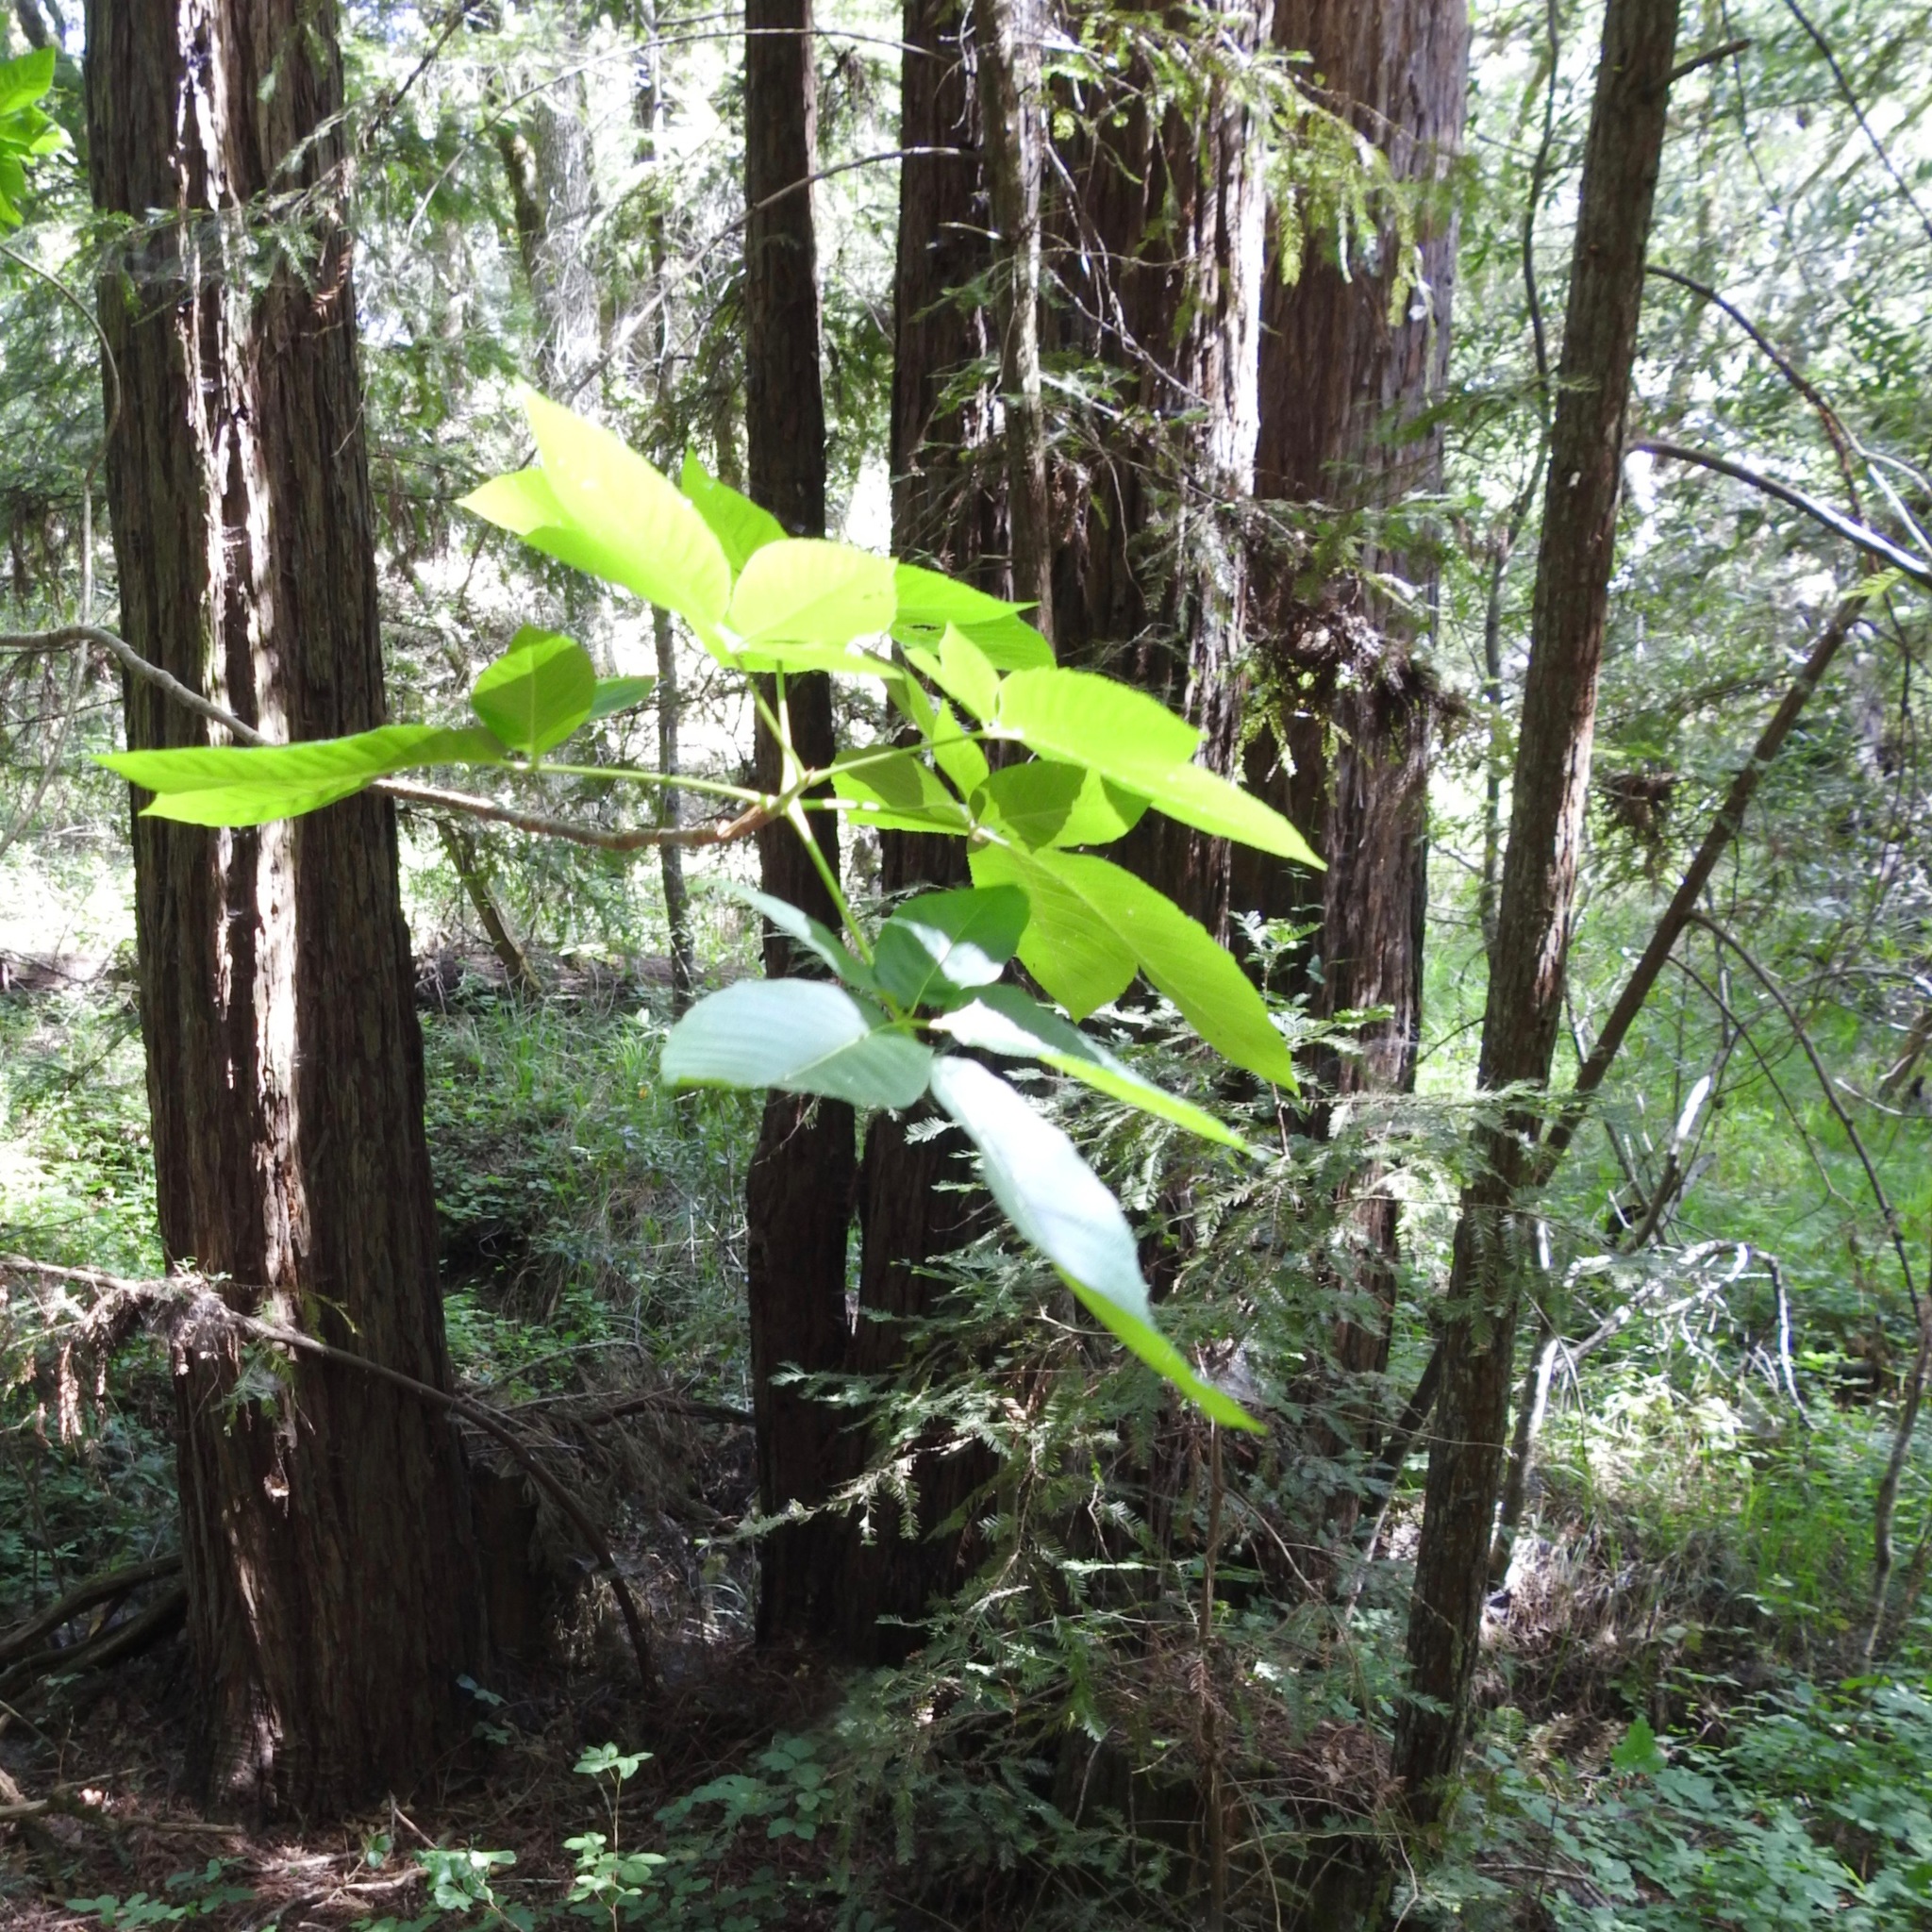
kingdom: Plantae
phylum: Tracheophyta
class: Magnoliopsida
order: Sapindales
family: Sapindaceae
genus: Aesculus
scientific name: Aesculus californica
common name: California buckeye
